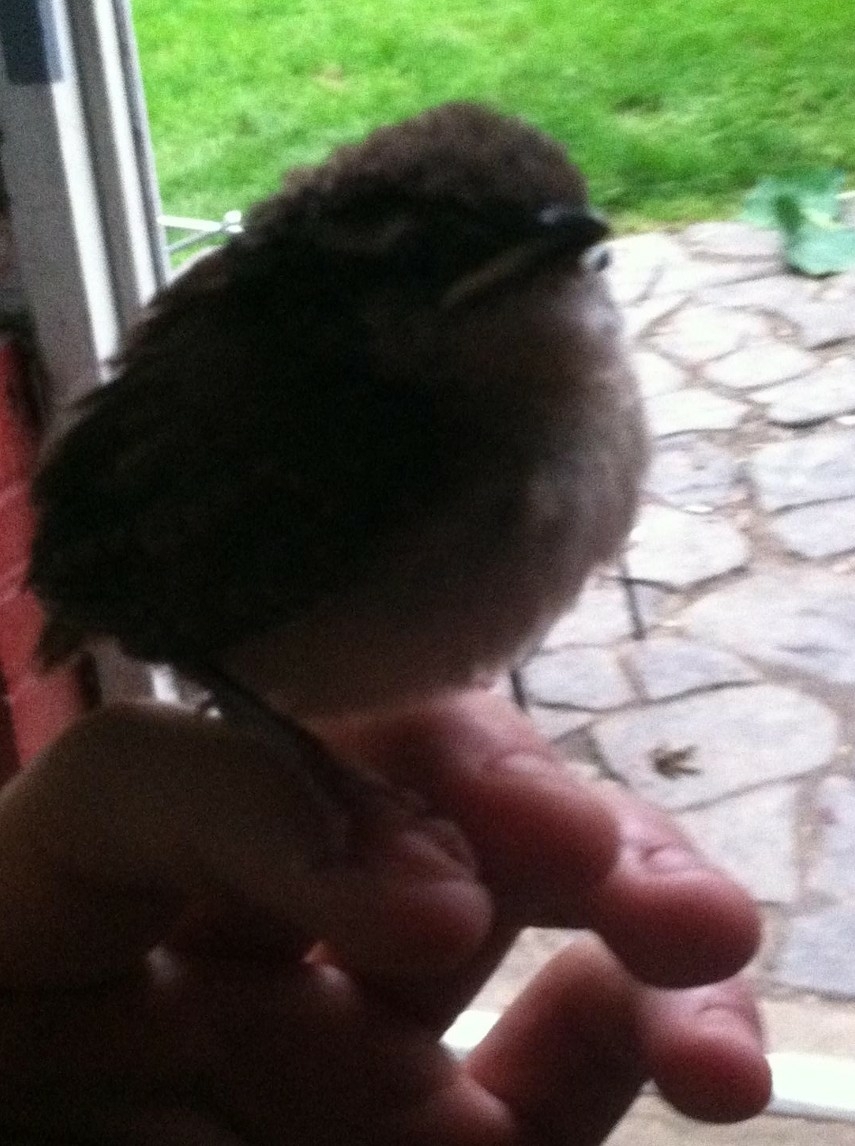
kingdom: Animalia
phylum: Chordata
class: Aves
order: Passeriformes
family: Troglodytidae
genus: Thryothorus
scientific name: Thryothorus ludovicianus
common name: Carolina wren
